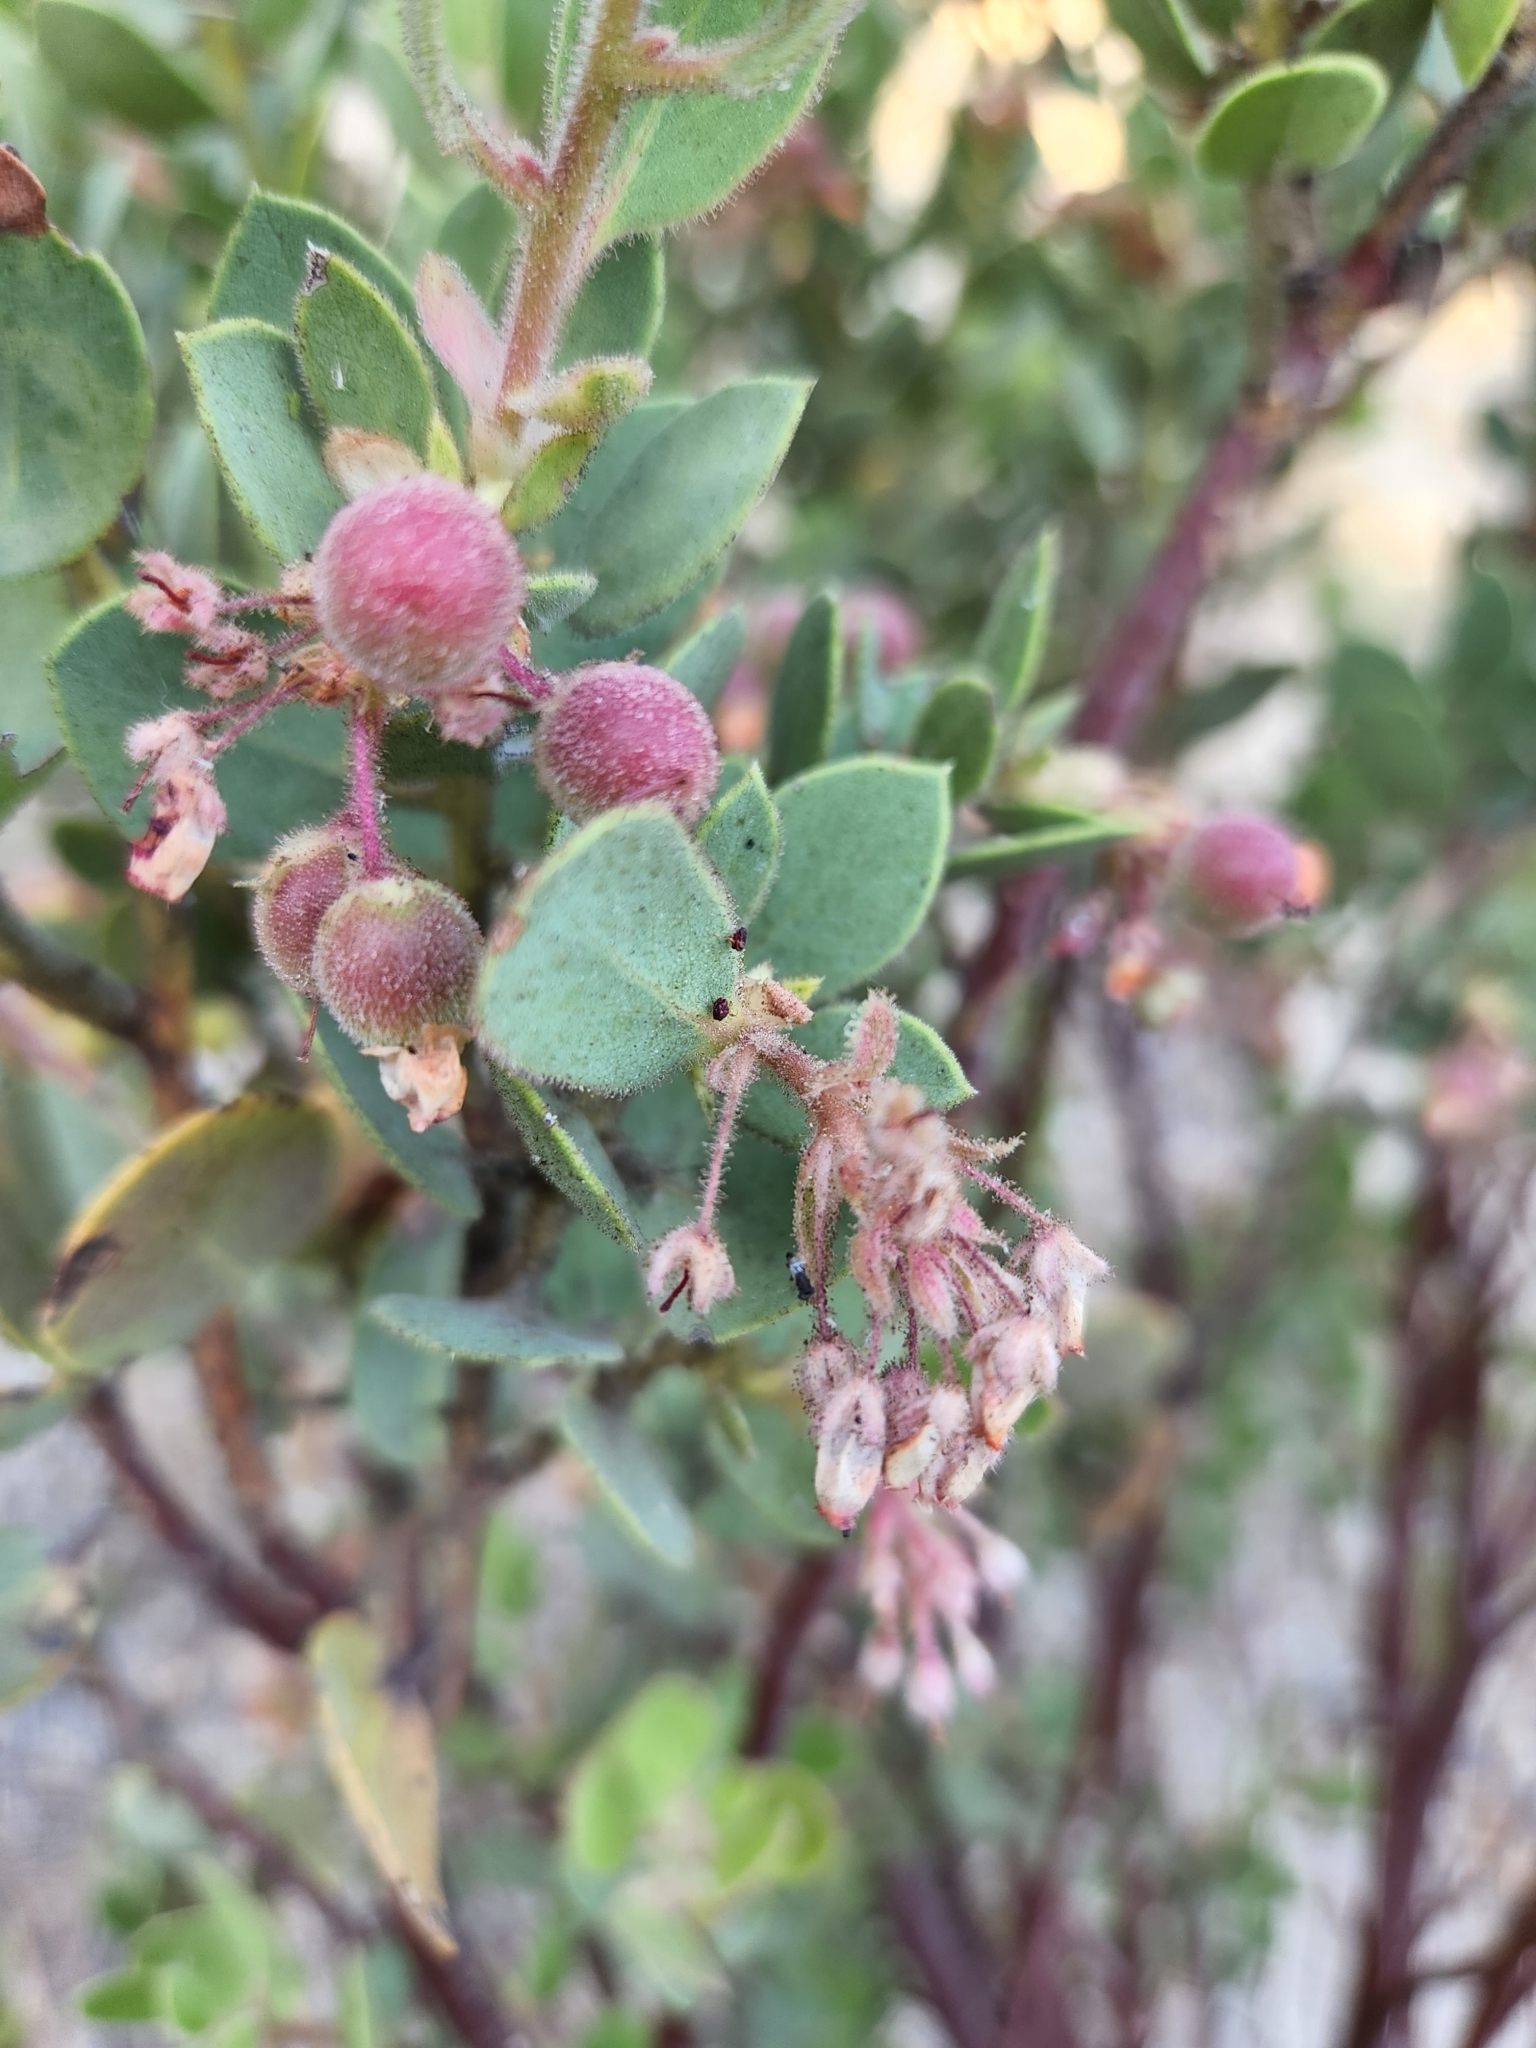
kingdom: Plantae
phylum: Tracheophyta
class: Magnoliopsida
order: Ericales
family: Ericaceae
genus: Arctostaphylos
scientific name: Arctostaphylos pringlei
